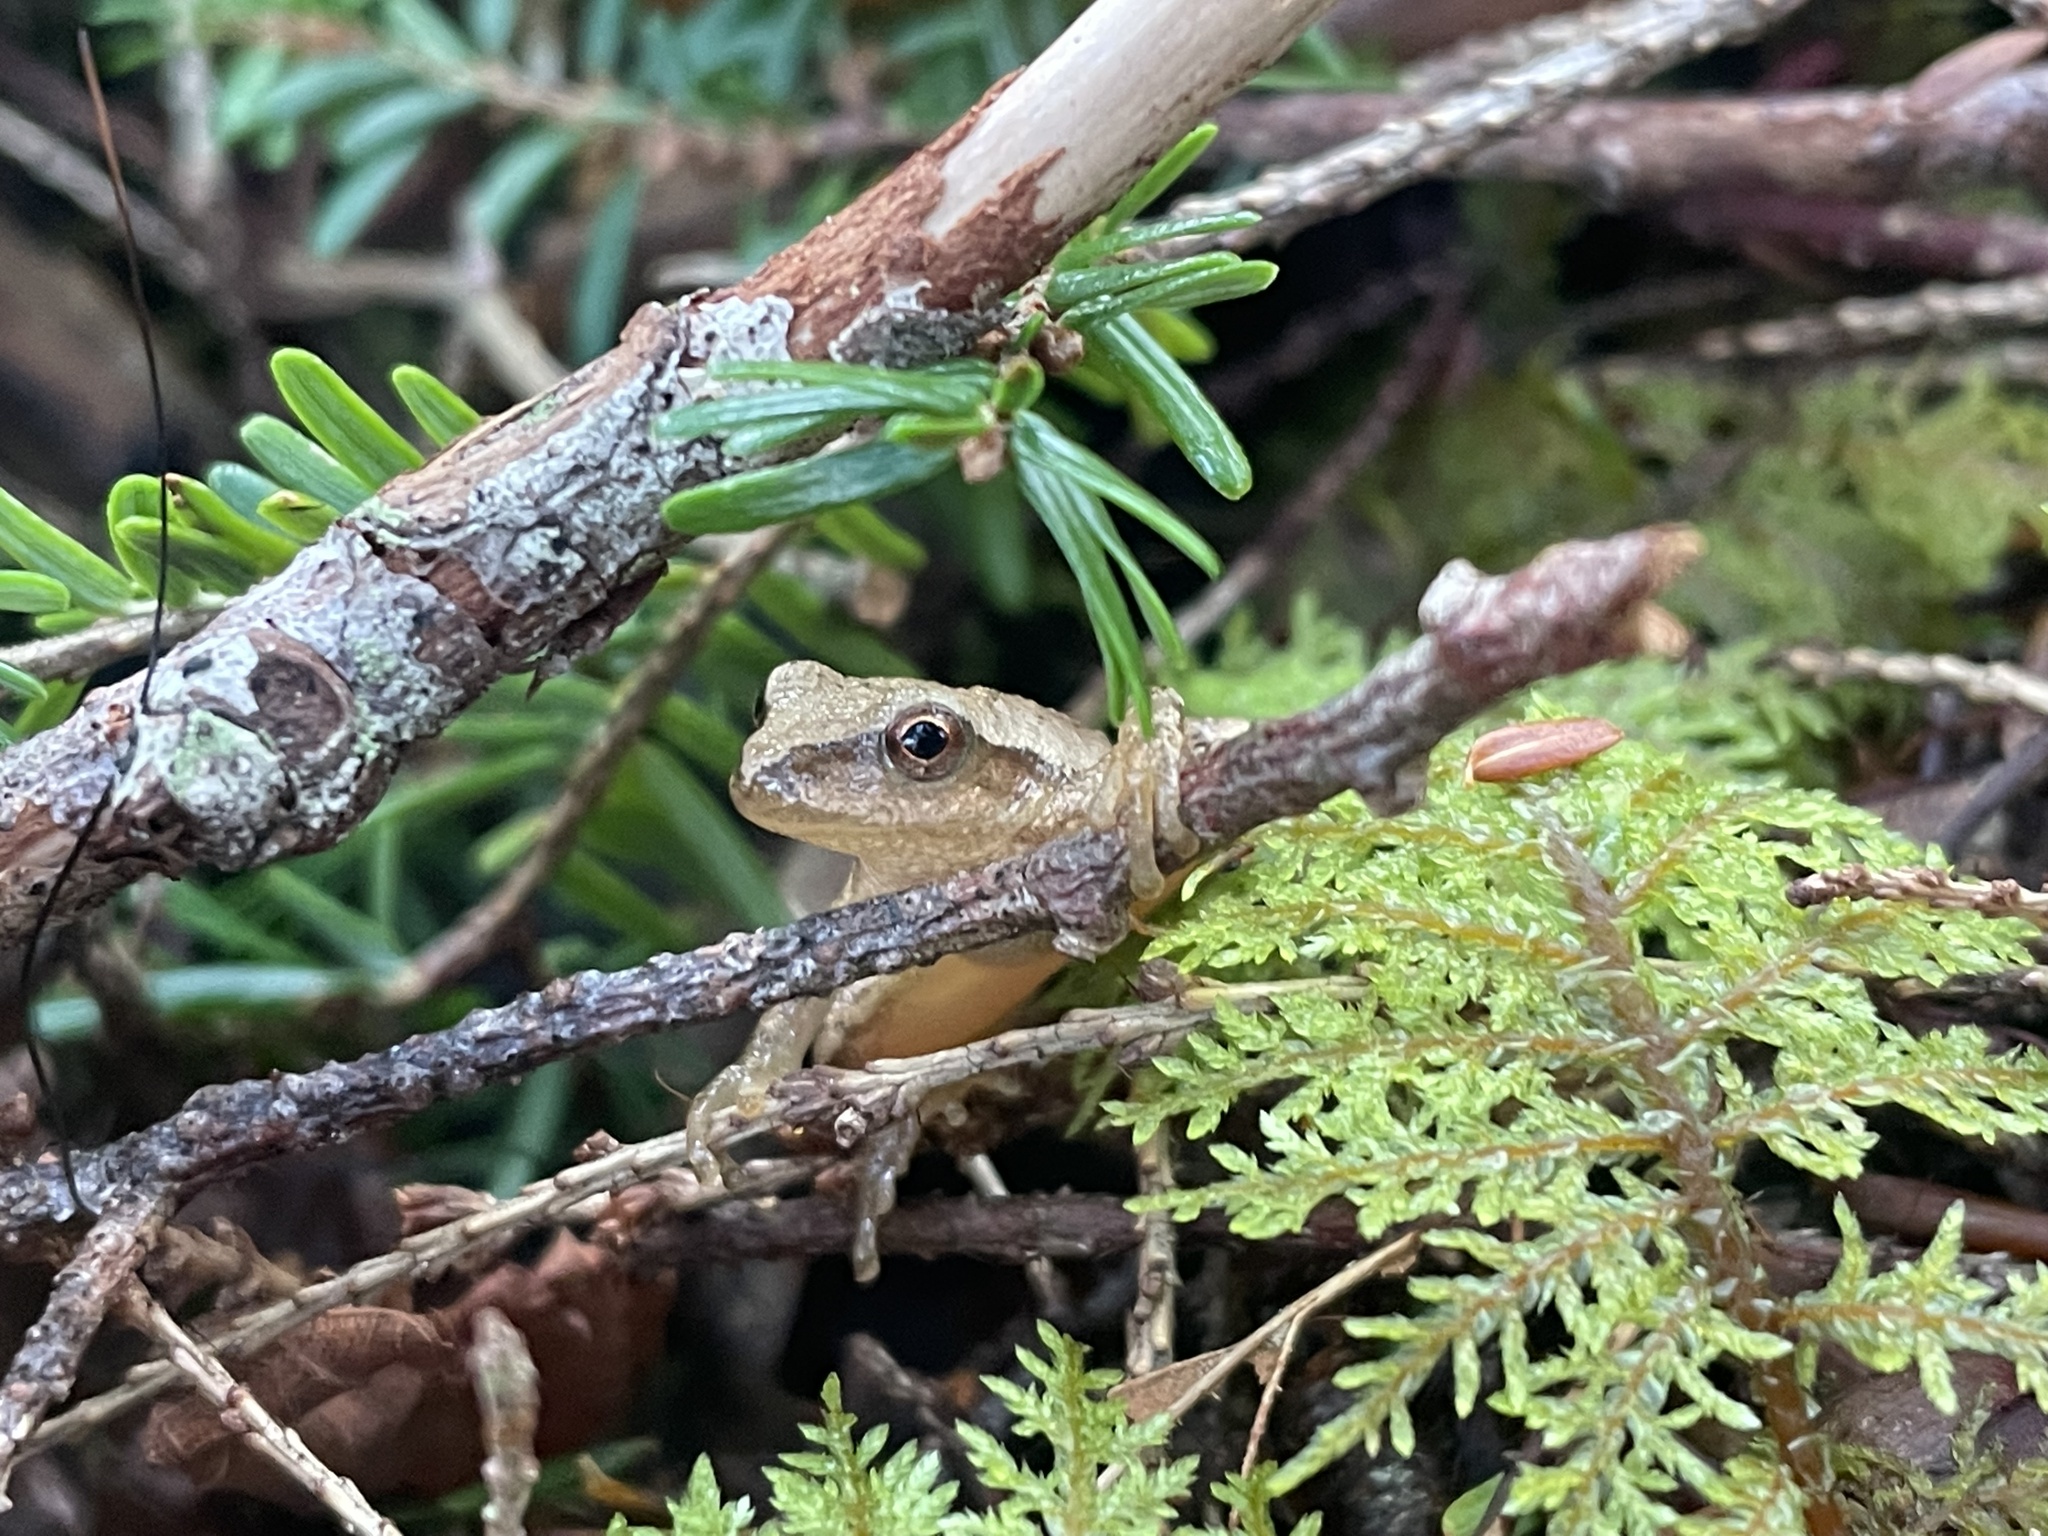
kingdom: Animalia
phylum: Chordata
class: Amphibia
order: Anura
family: Hylidae
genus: Pseudacris
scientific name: Pseudacris crucifer
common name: Spring peeper
